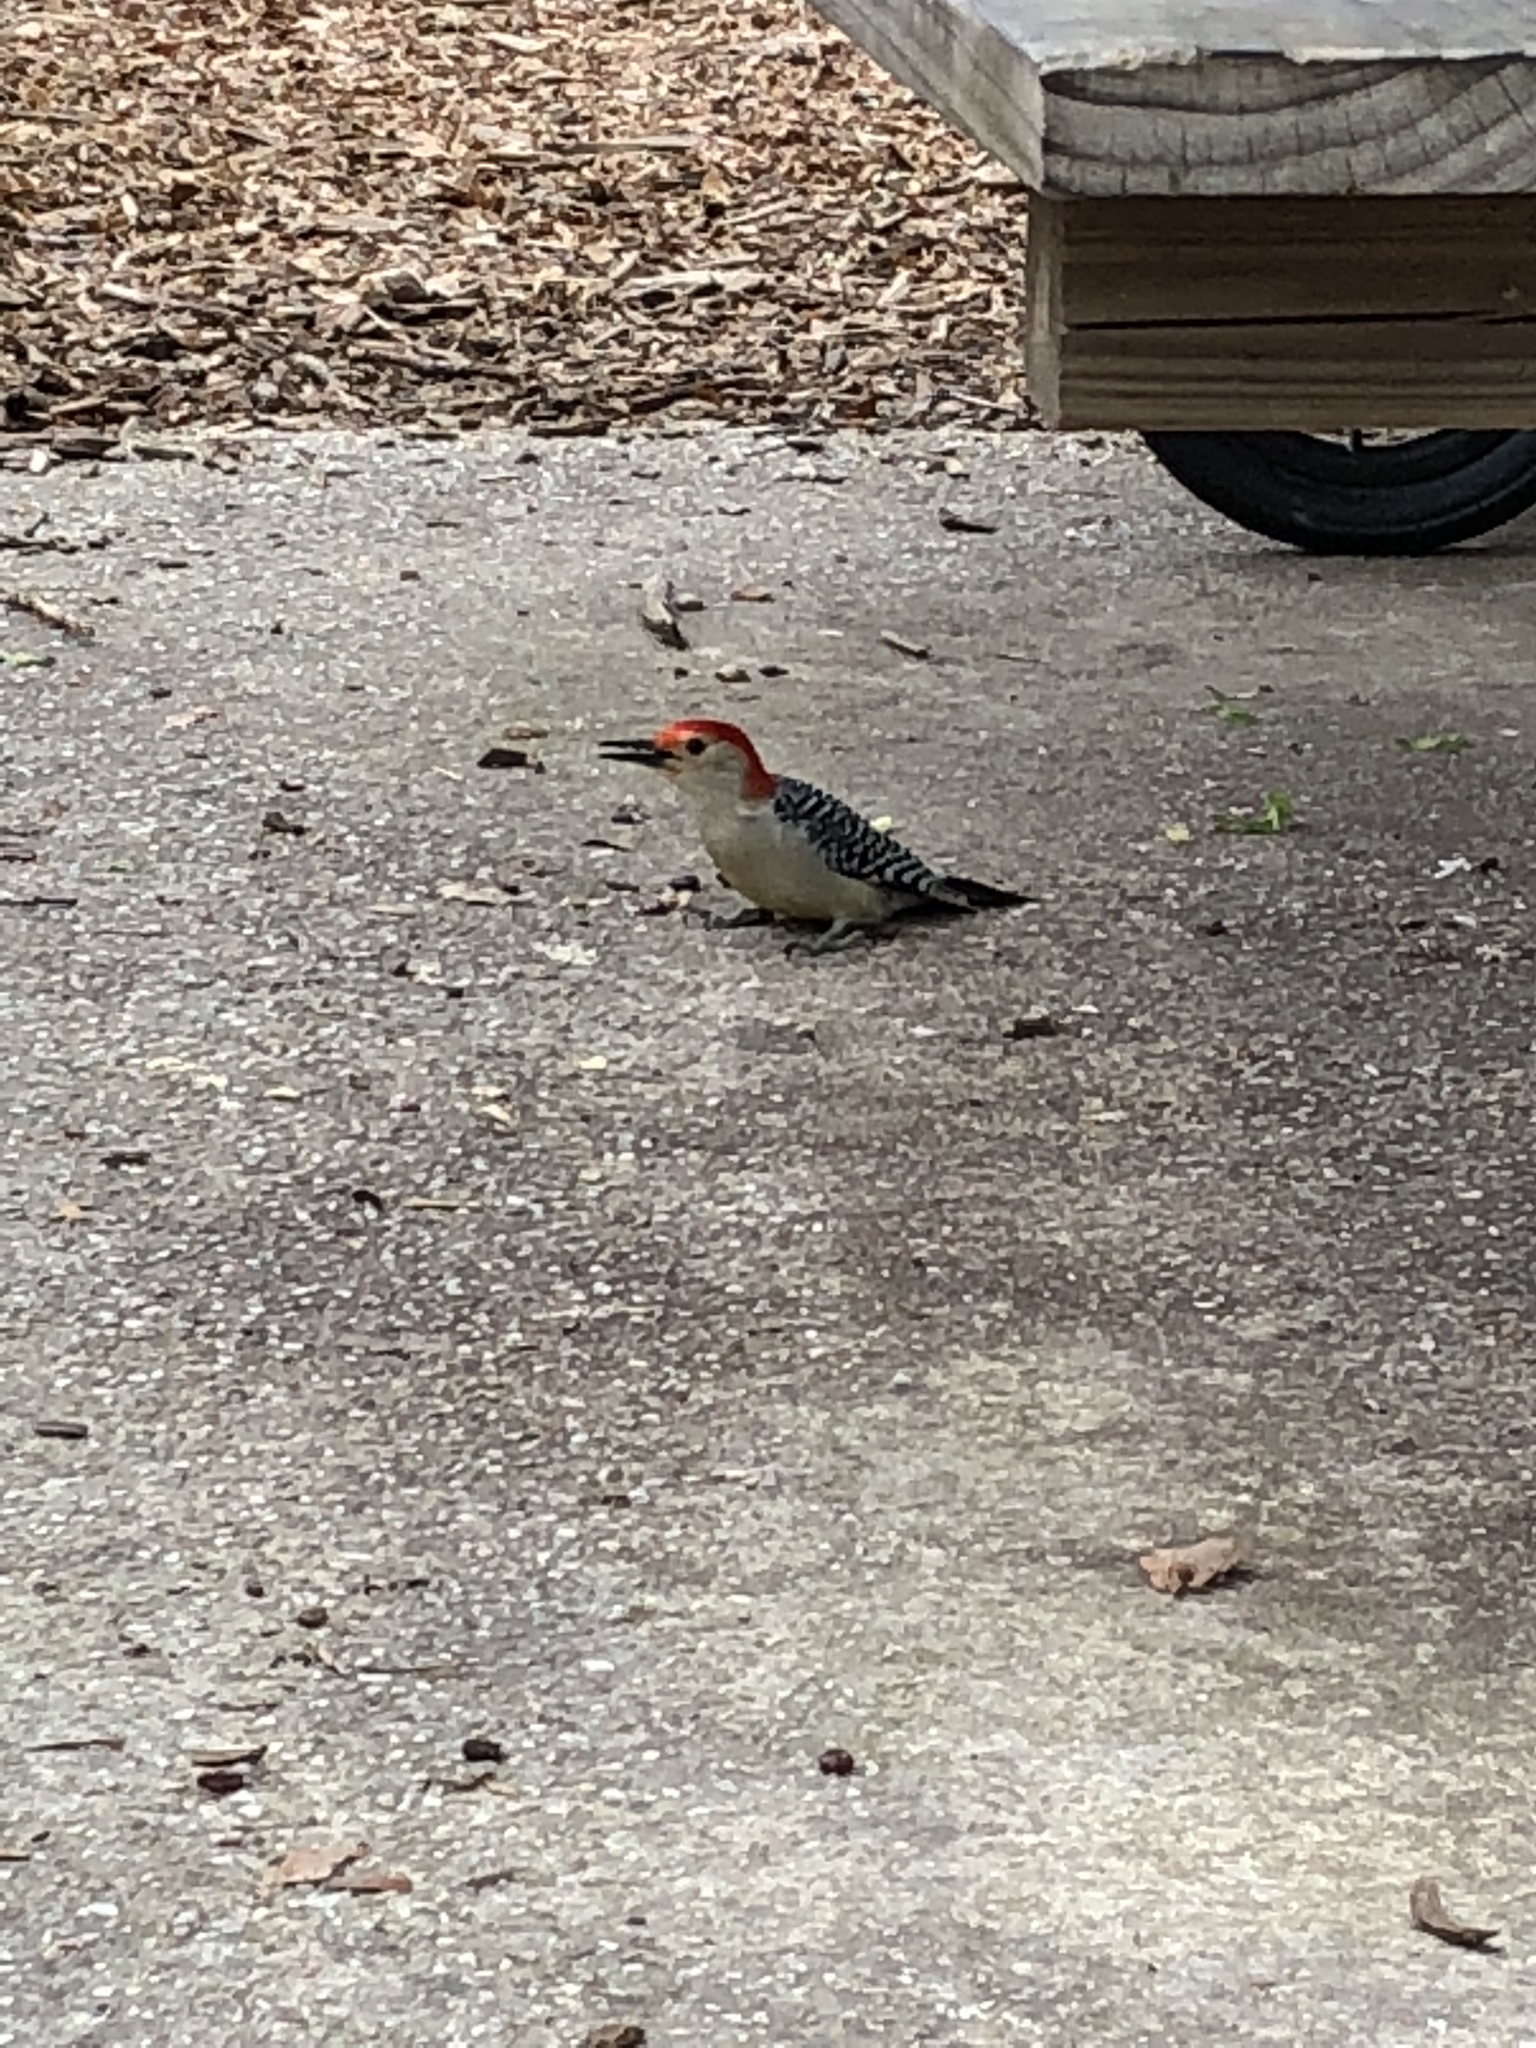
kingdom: Animalia
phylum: Chordata
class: Aves
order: Piciformes
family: Picidae
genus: Melanerpes
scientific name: Melanerpes carolinus
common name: Red-bellied woodpecker
